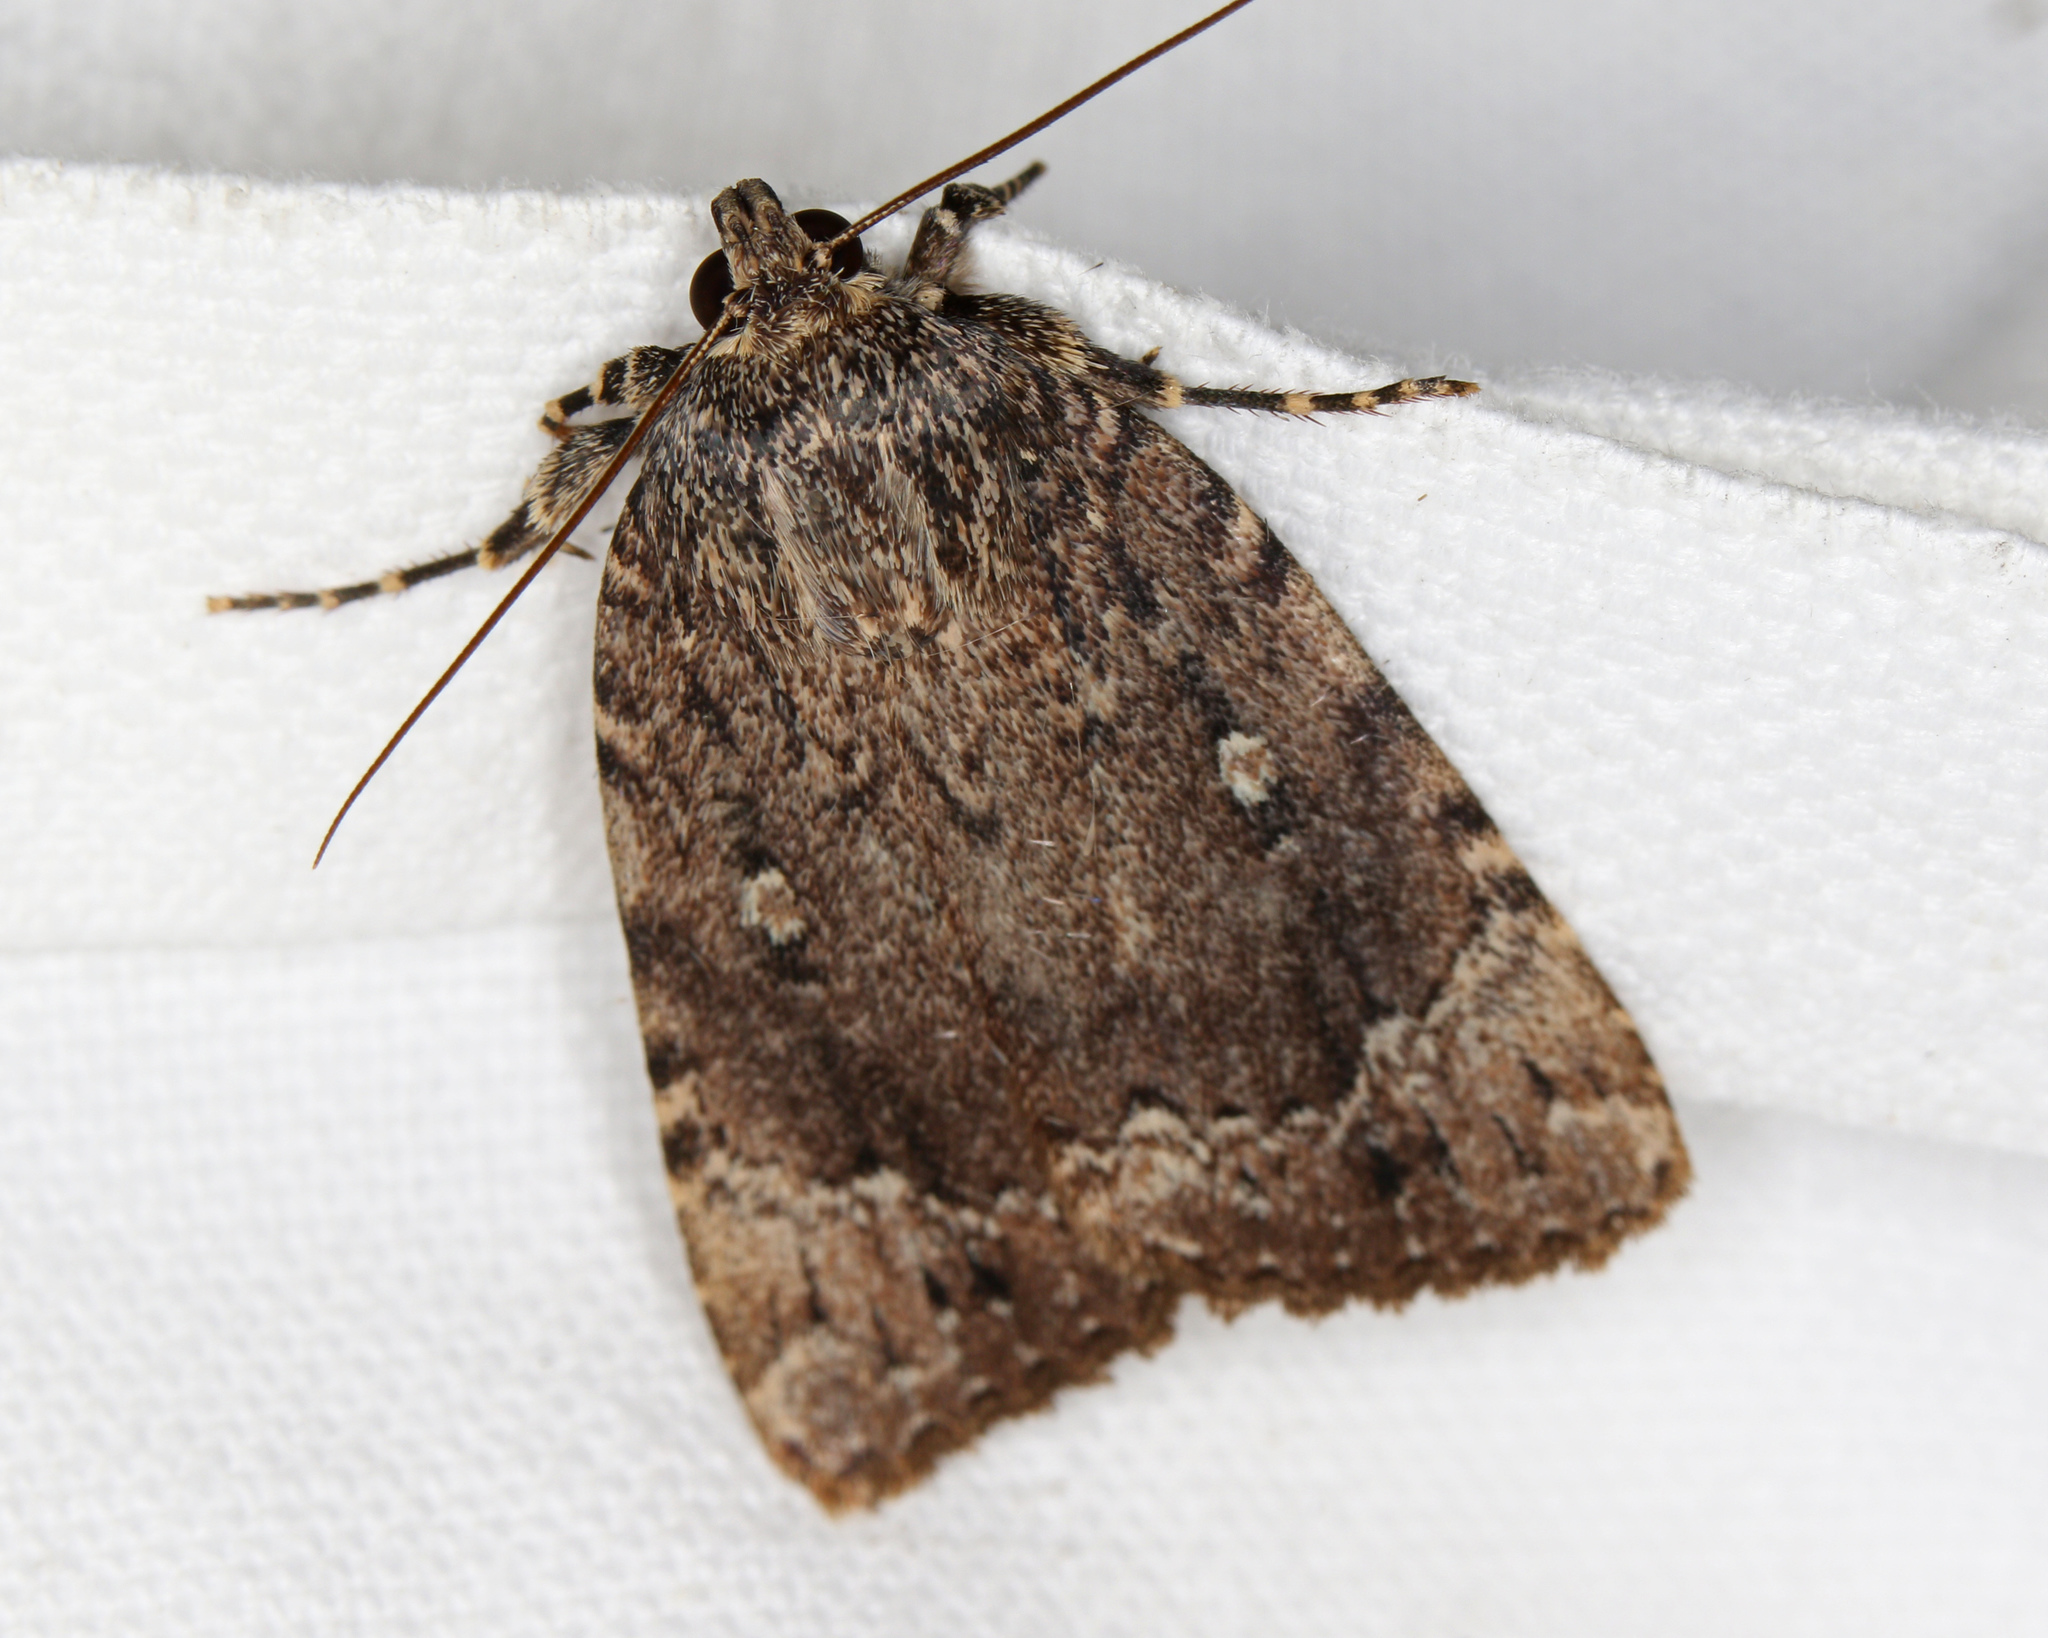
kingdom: Animalia
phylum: Arthropoda
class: Insecta
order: Lepidoptera
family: Noctuidae
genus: Amphipyra
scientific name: Amphipyra pyramidoides
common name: American copper underwing
